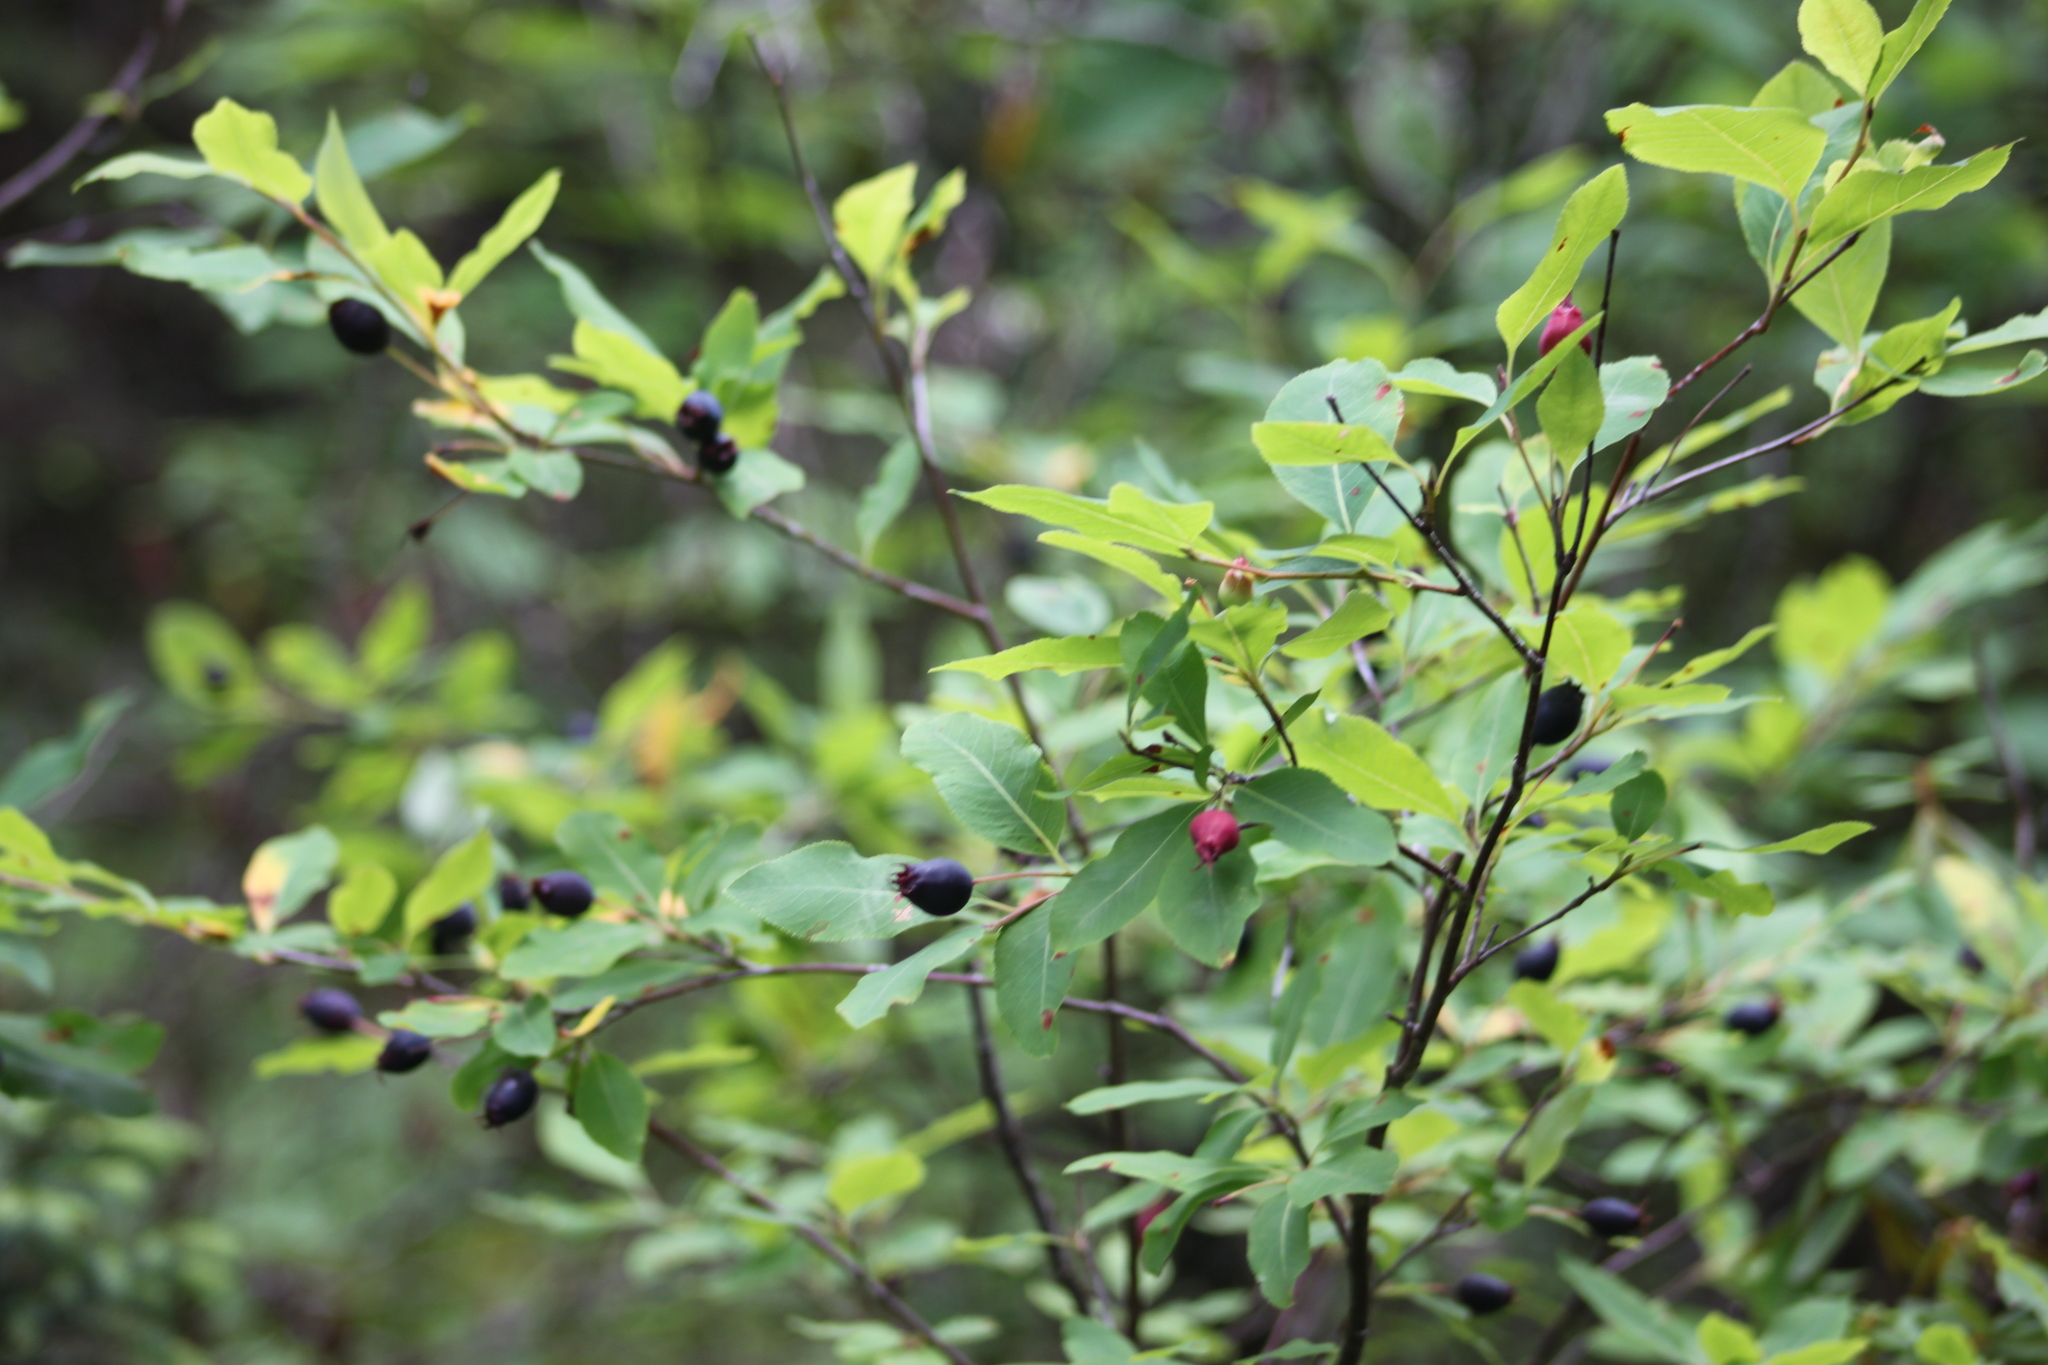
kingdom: Plantae
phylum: Tracheophyta
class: Magnoliopsida
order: Rosales
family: Rosaceae
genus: Amelanchier
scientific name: Amelanchier bartramiana
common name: Mountain serviceberry
